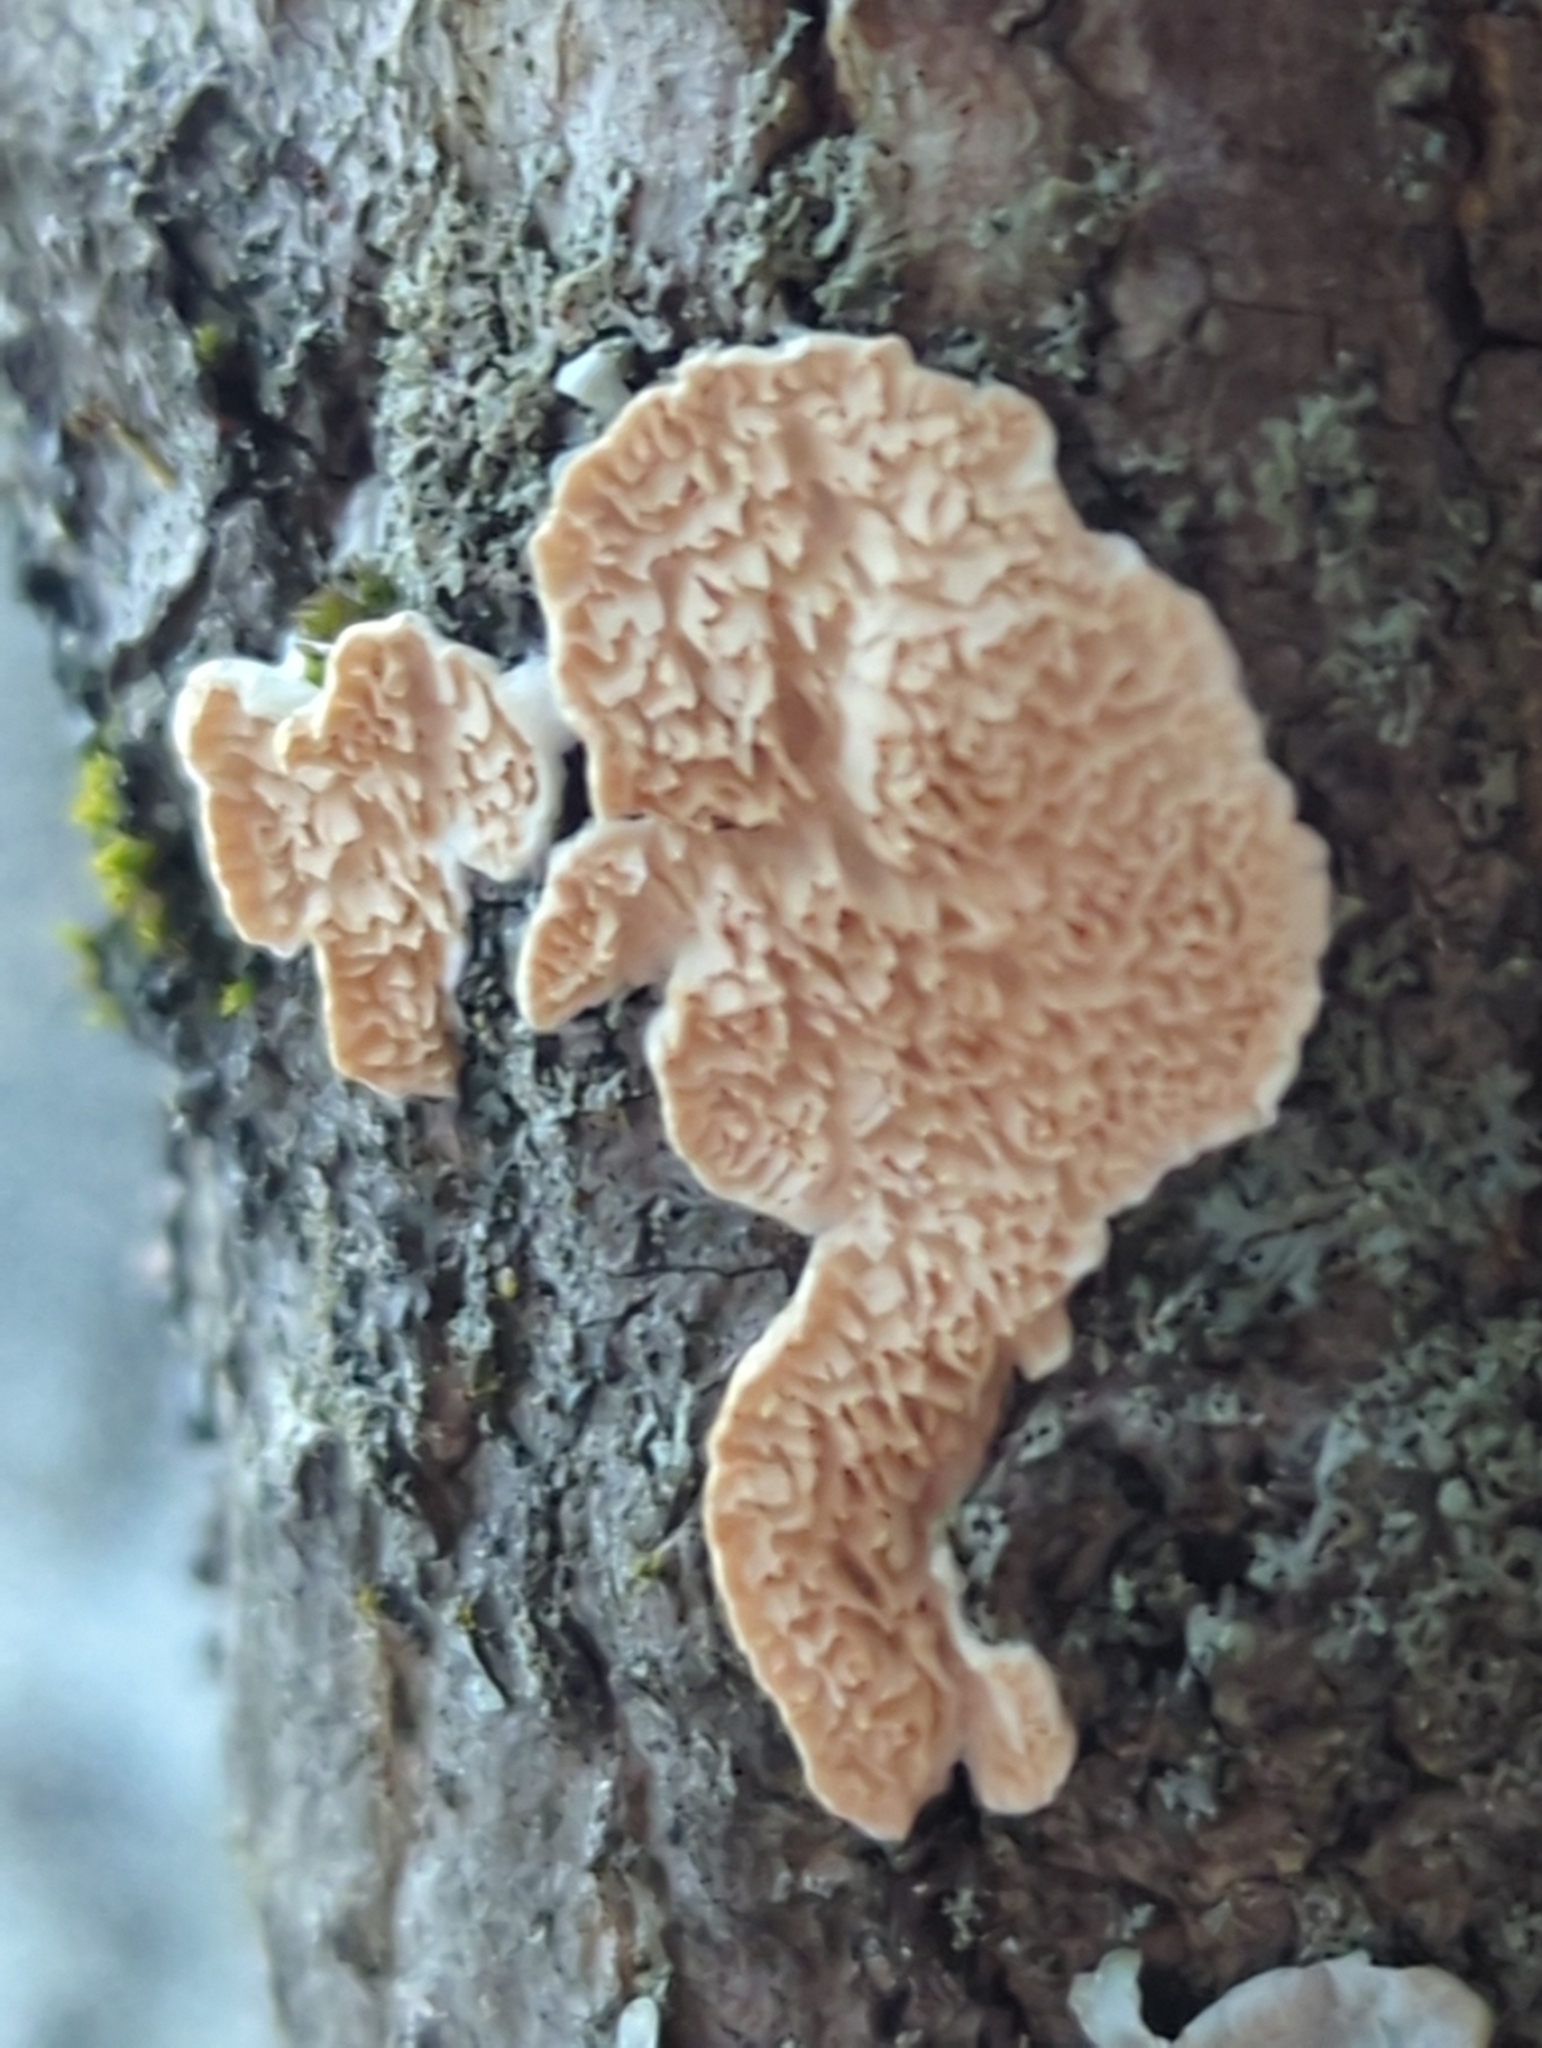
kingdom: Fungi
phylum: Basidiomycota
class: Agaricomycetes
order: Polyporales
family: Irpicaceae
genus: Irpex
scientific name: Irpex lacteus
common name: Milk-white toothed polypore
